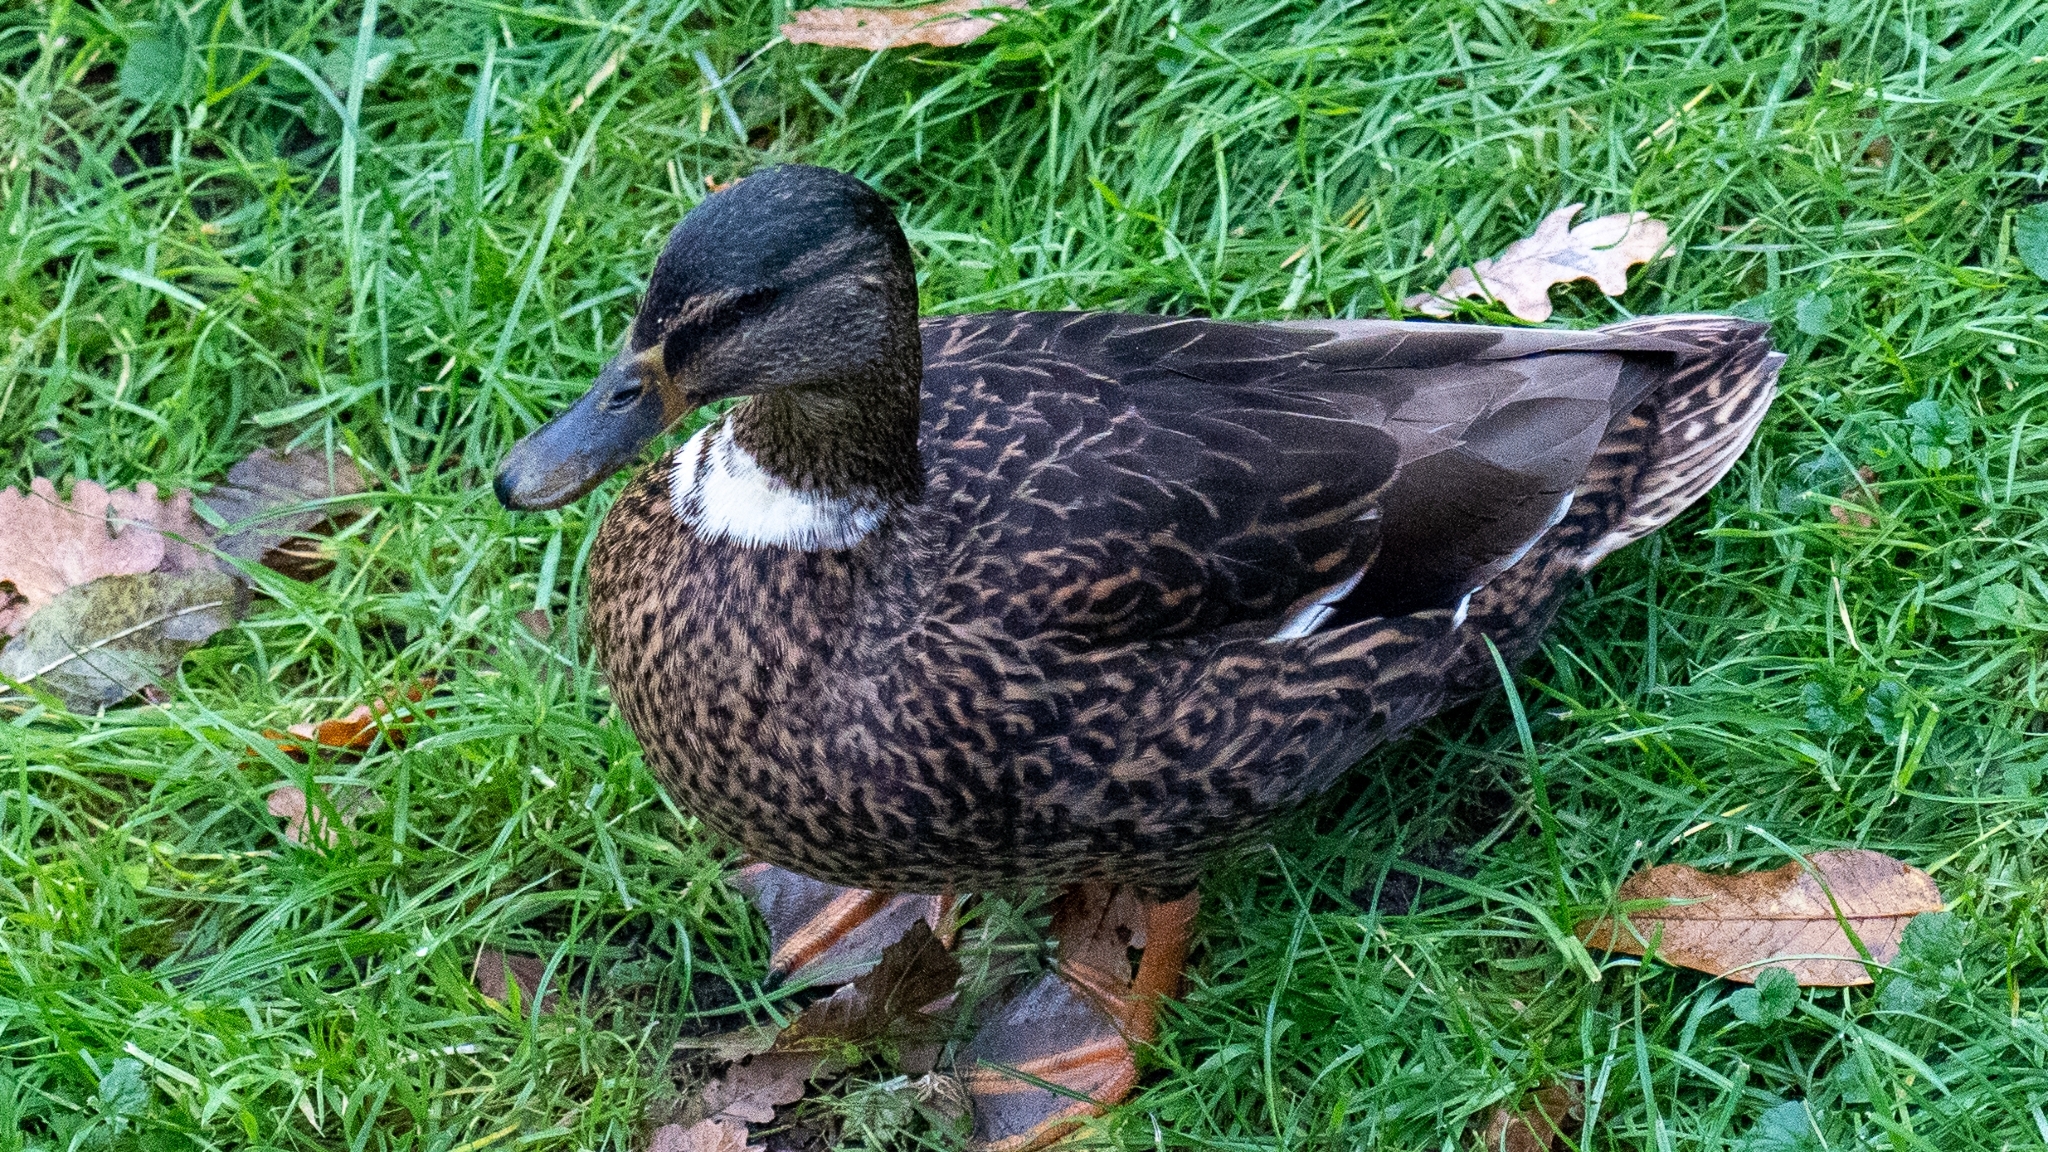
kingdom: Animalia
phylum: Chordata
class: Aves
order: Anseriformes
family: Anatidae
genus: Anas
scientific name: Anas platyrhynchos
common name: Mallard
